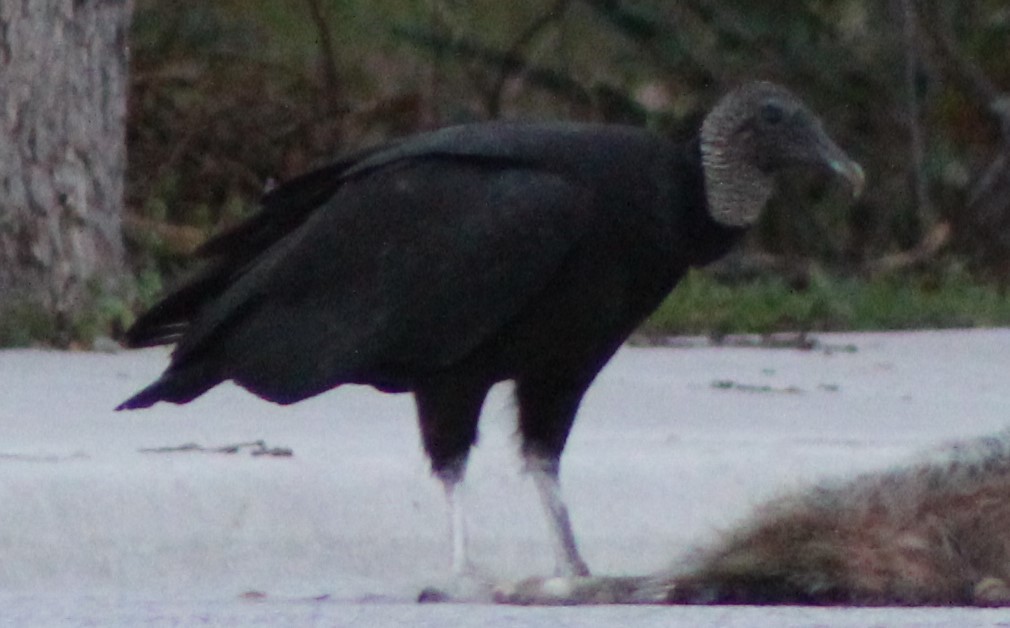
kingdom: Animalia
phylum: Chordata
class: Aves
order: Accipitriformes
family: Cathartidae
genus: Coragyps
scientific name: Coragyps atratus
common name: Black vulture
